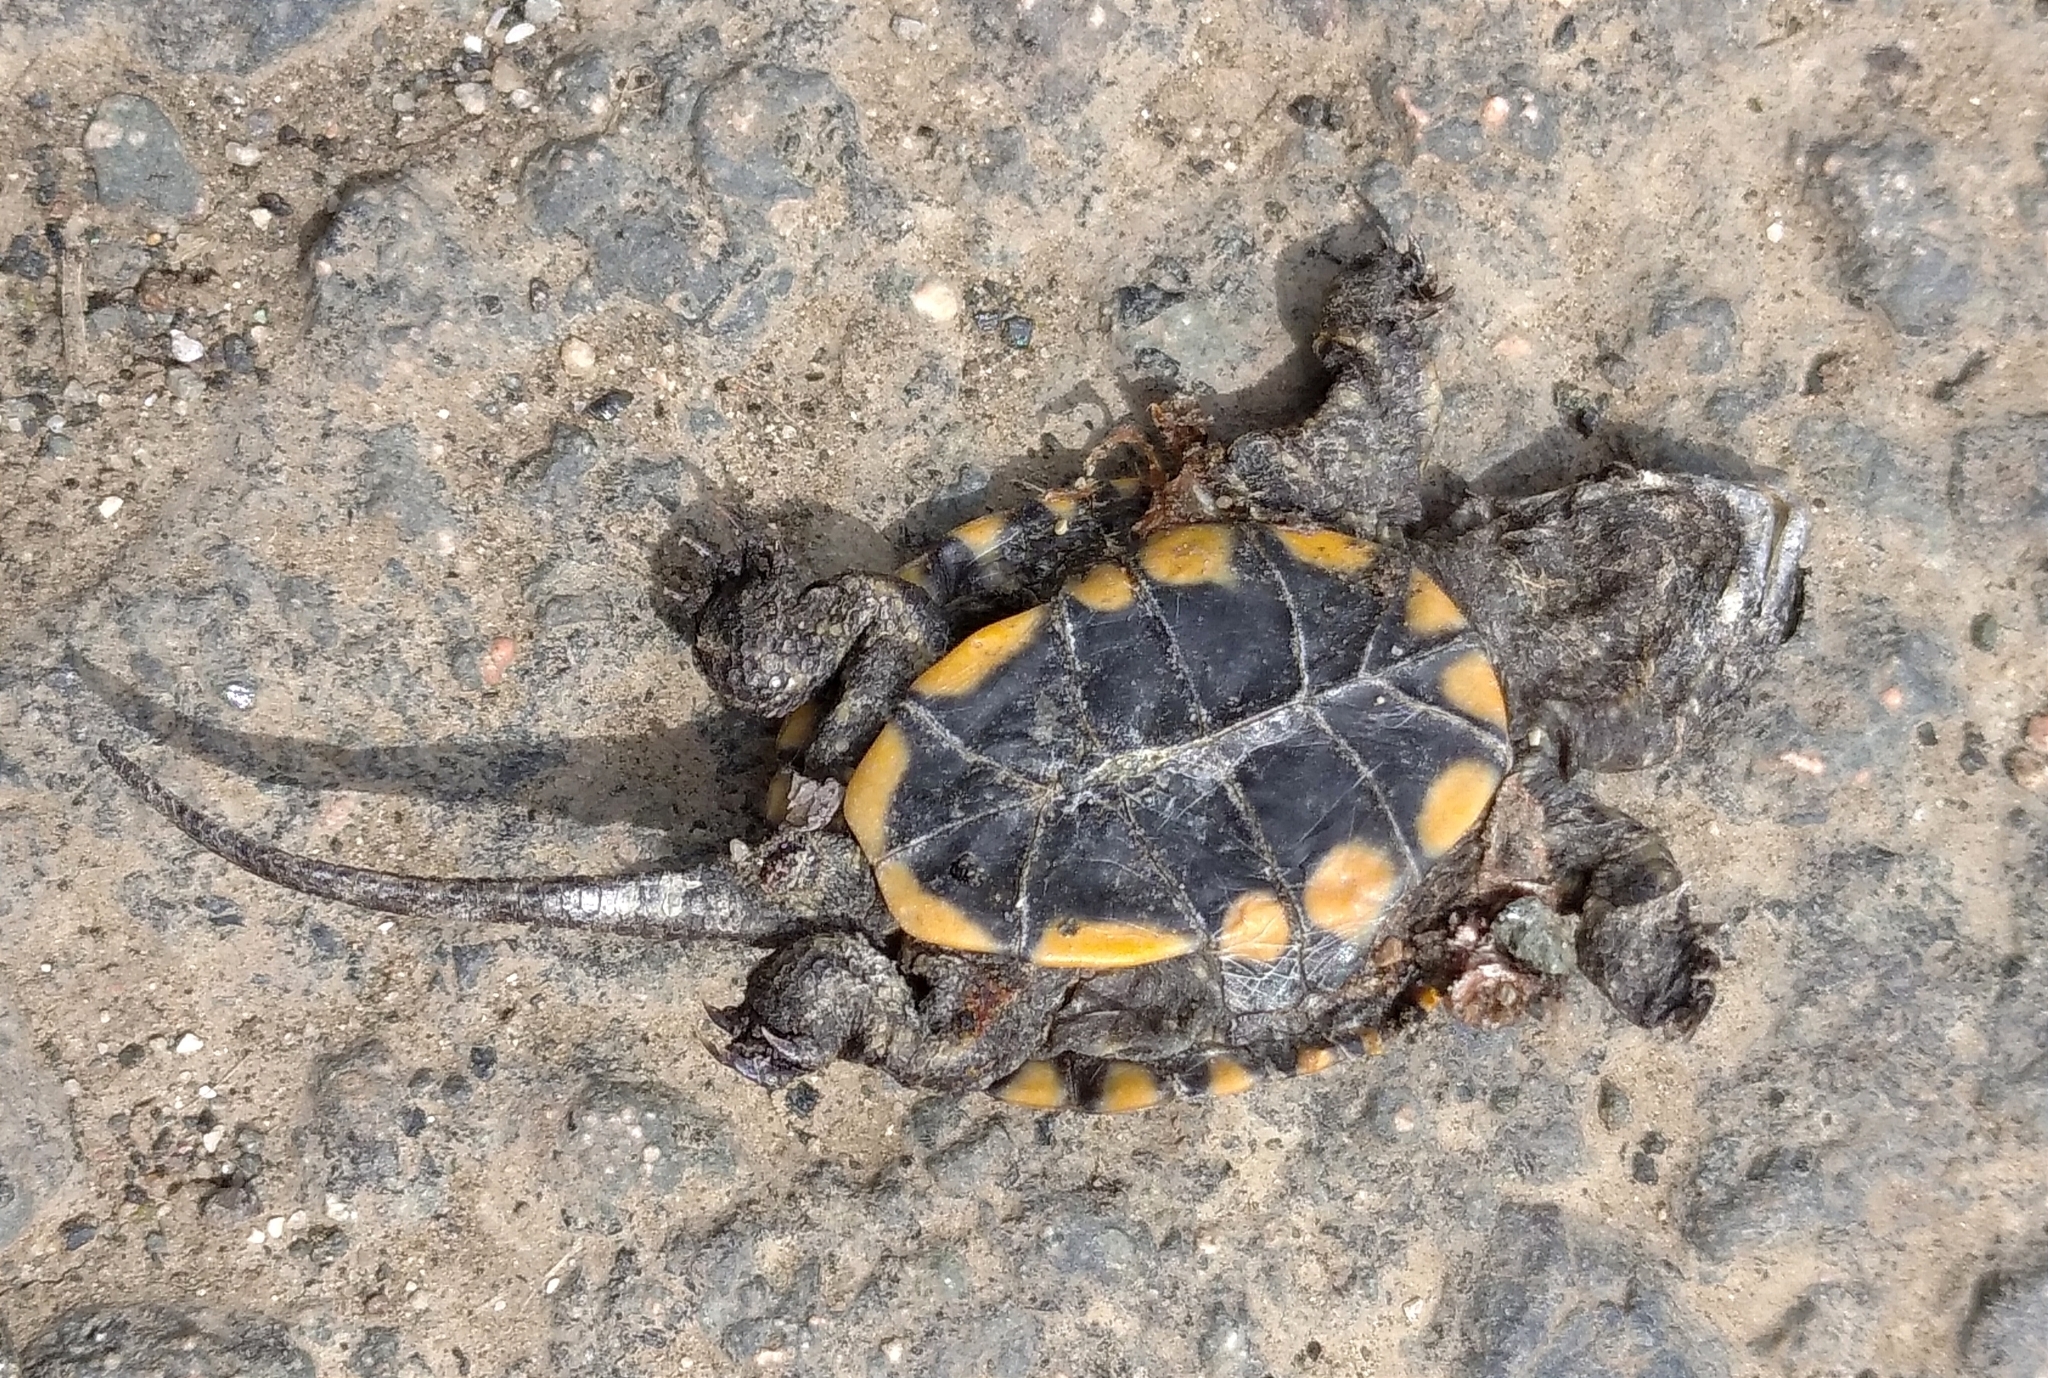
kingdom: Animalia
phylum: Chordata
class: Testudines
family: Emydidae
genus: Emys
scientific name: Emys orbicularis
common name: European pond turtle
